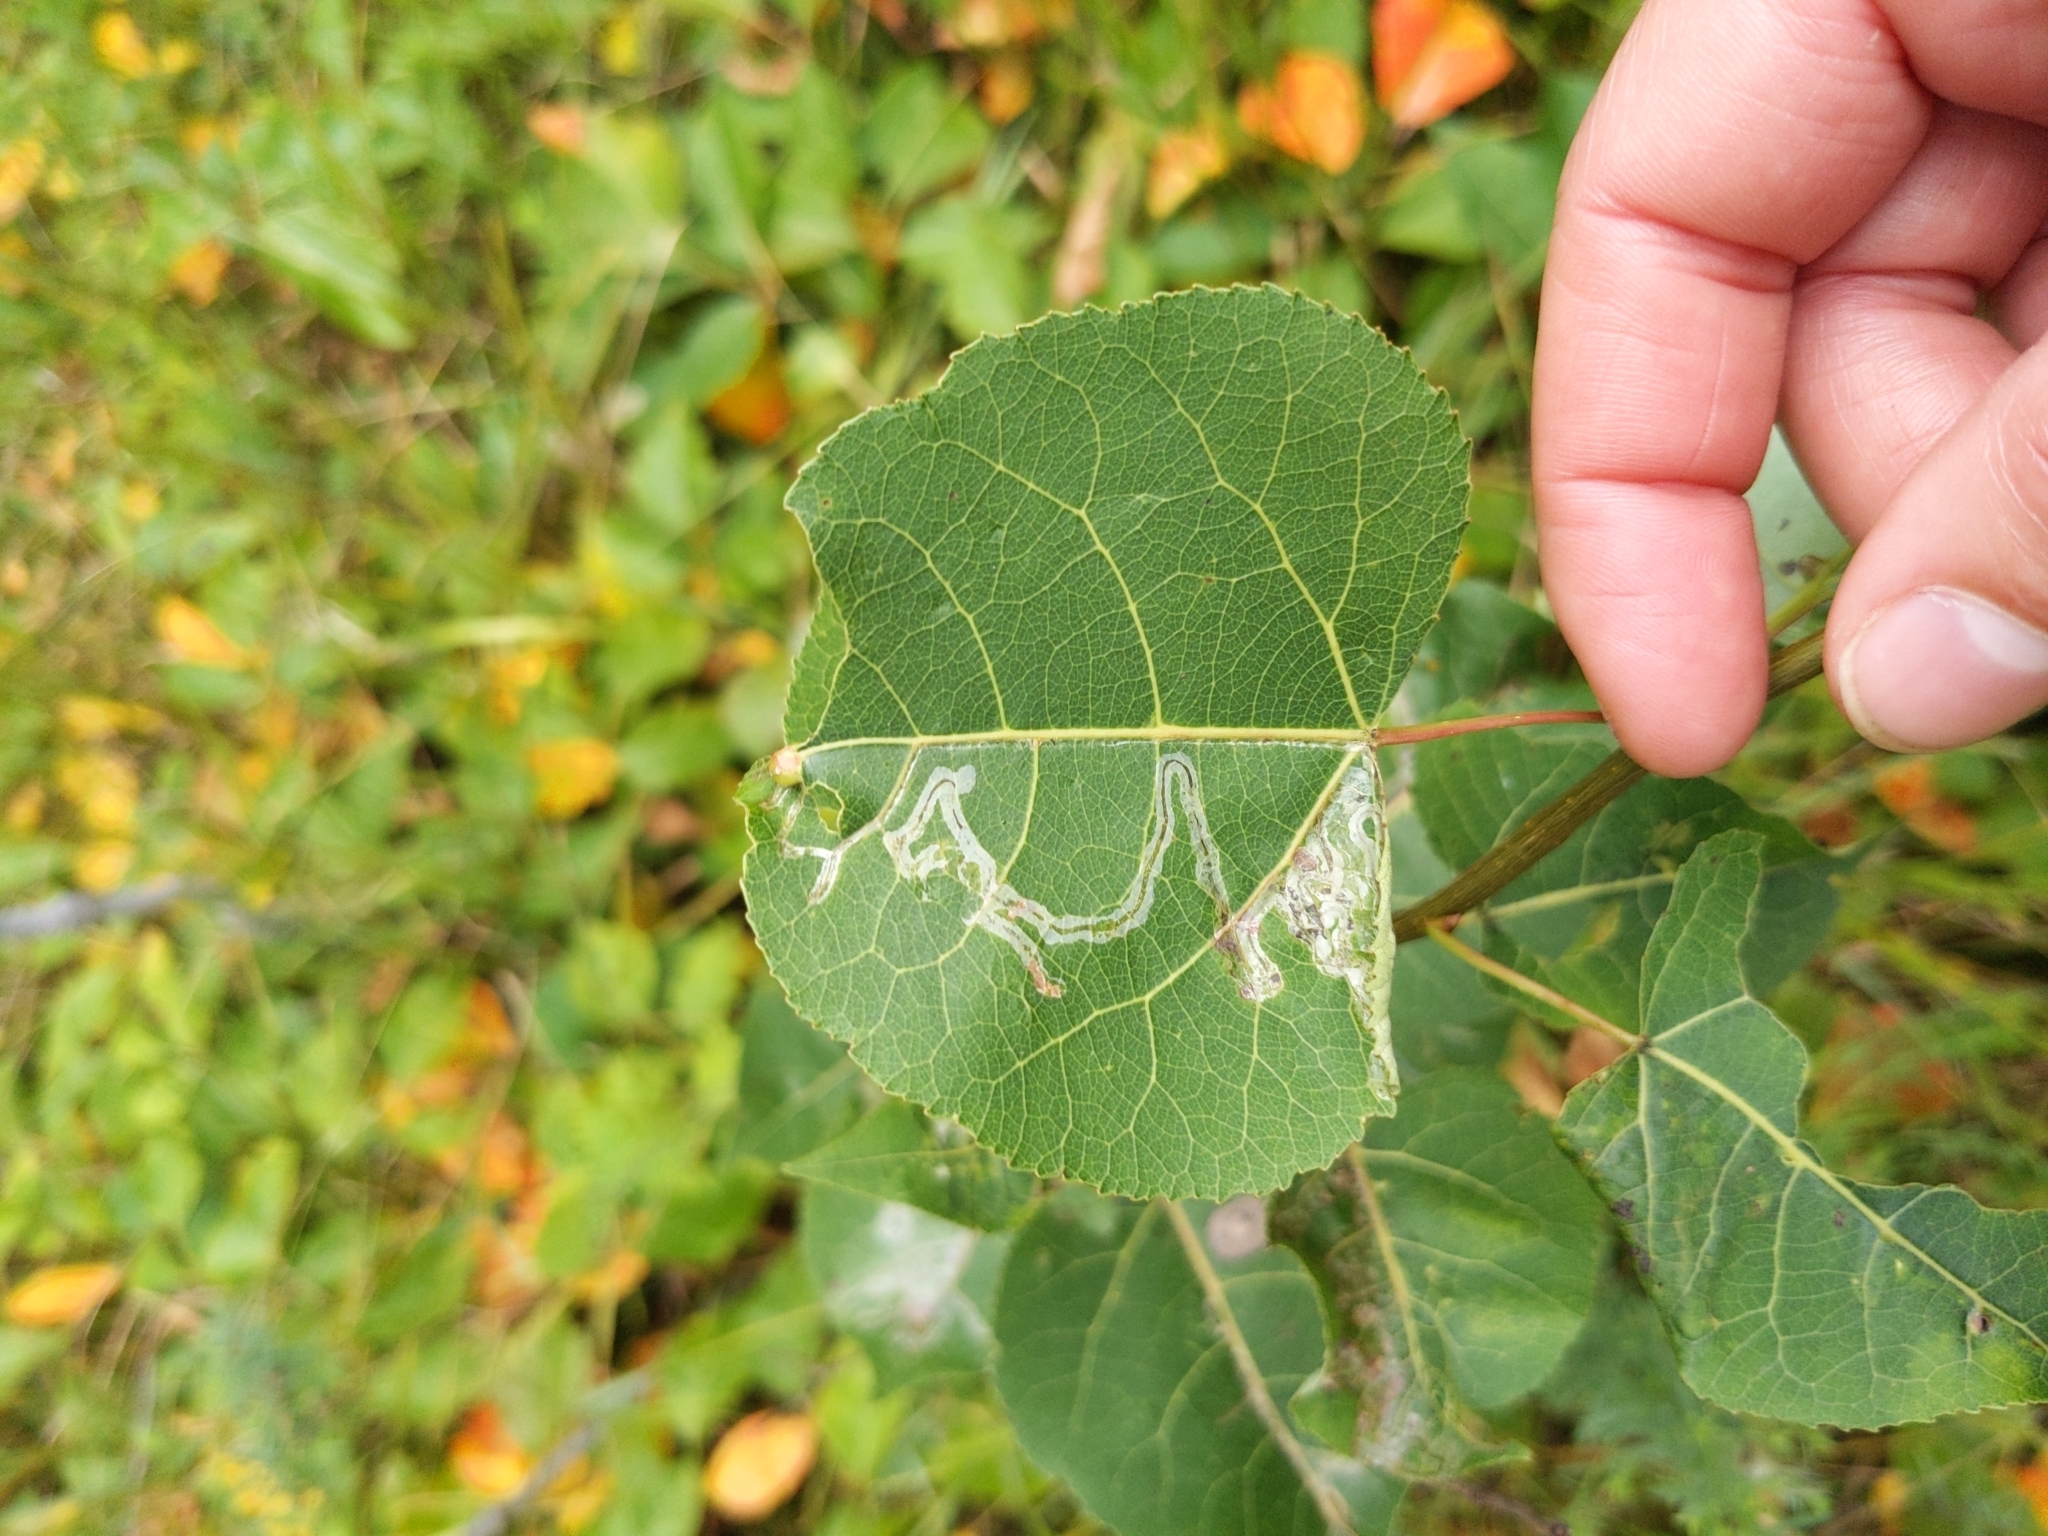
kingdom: Animalia
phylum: Arthropoda
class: Insecta
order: Lepidoptera
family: Gracillariidae
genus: Phyllocnistis
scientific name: Phyllocnistis populiella
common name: Aspen serpentine leafminer moth
